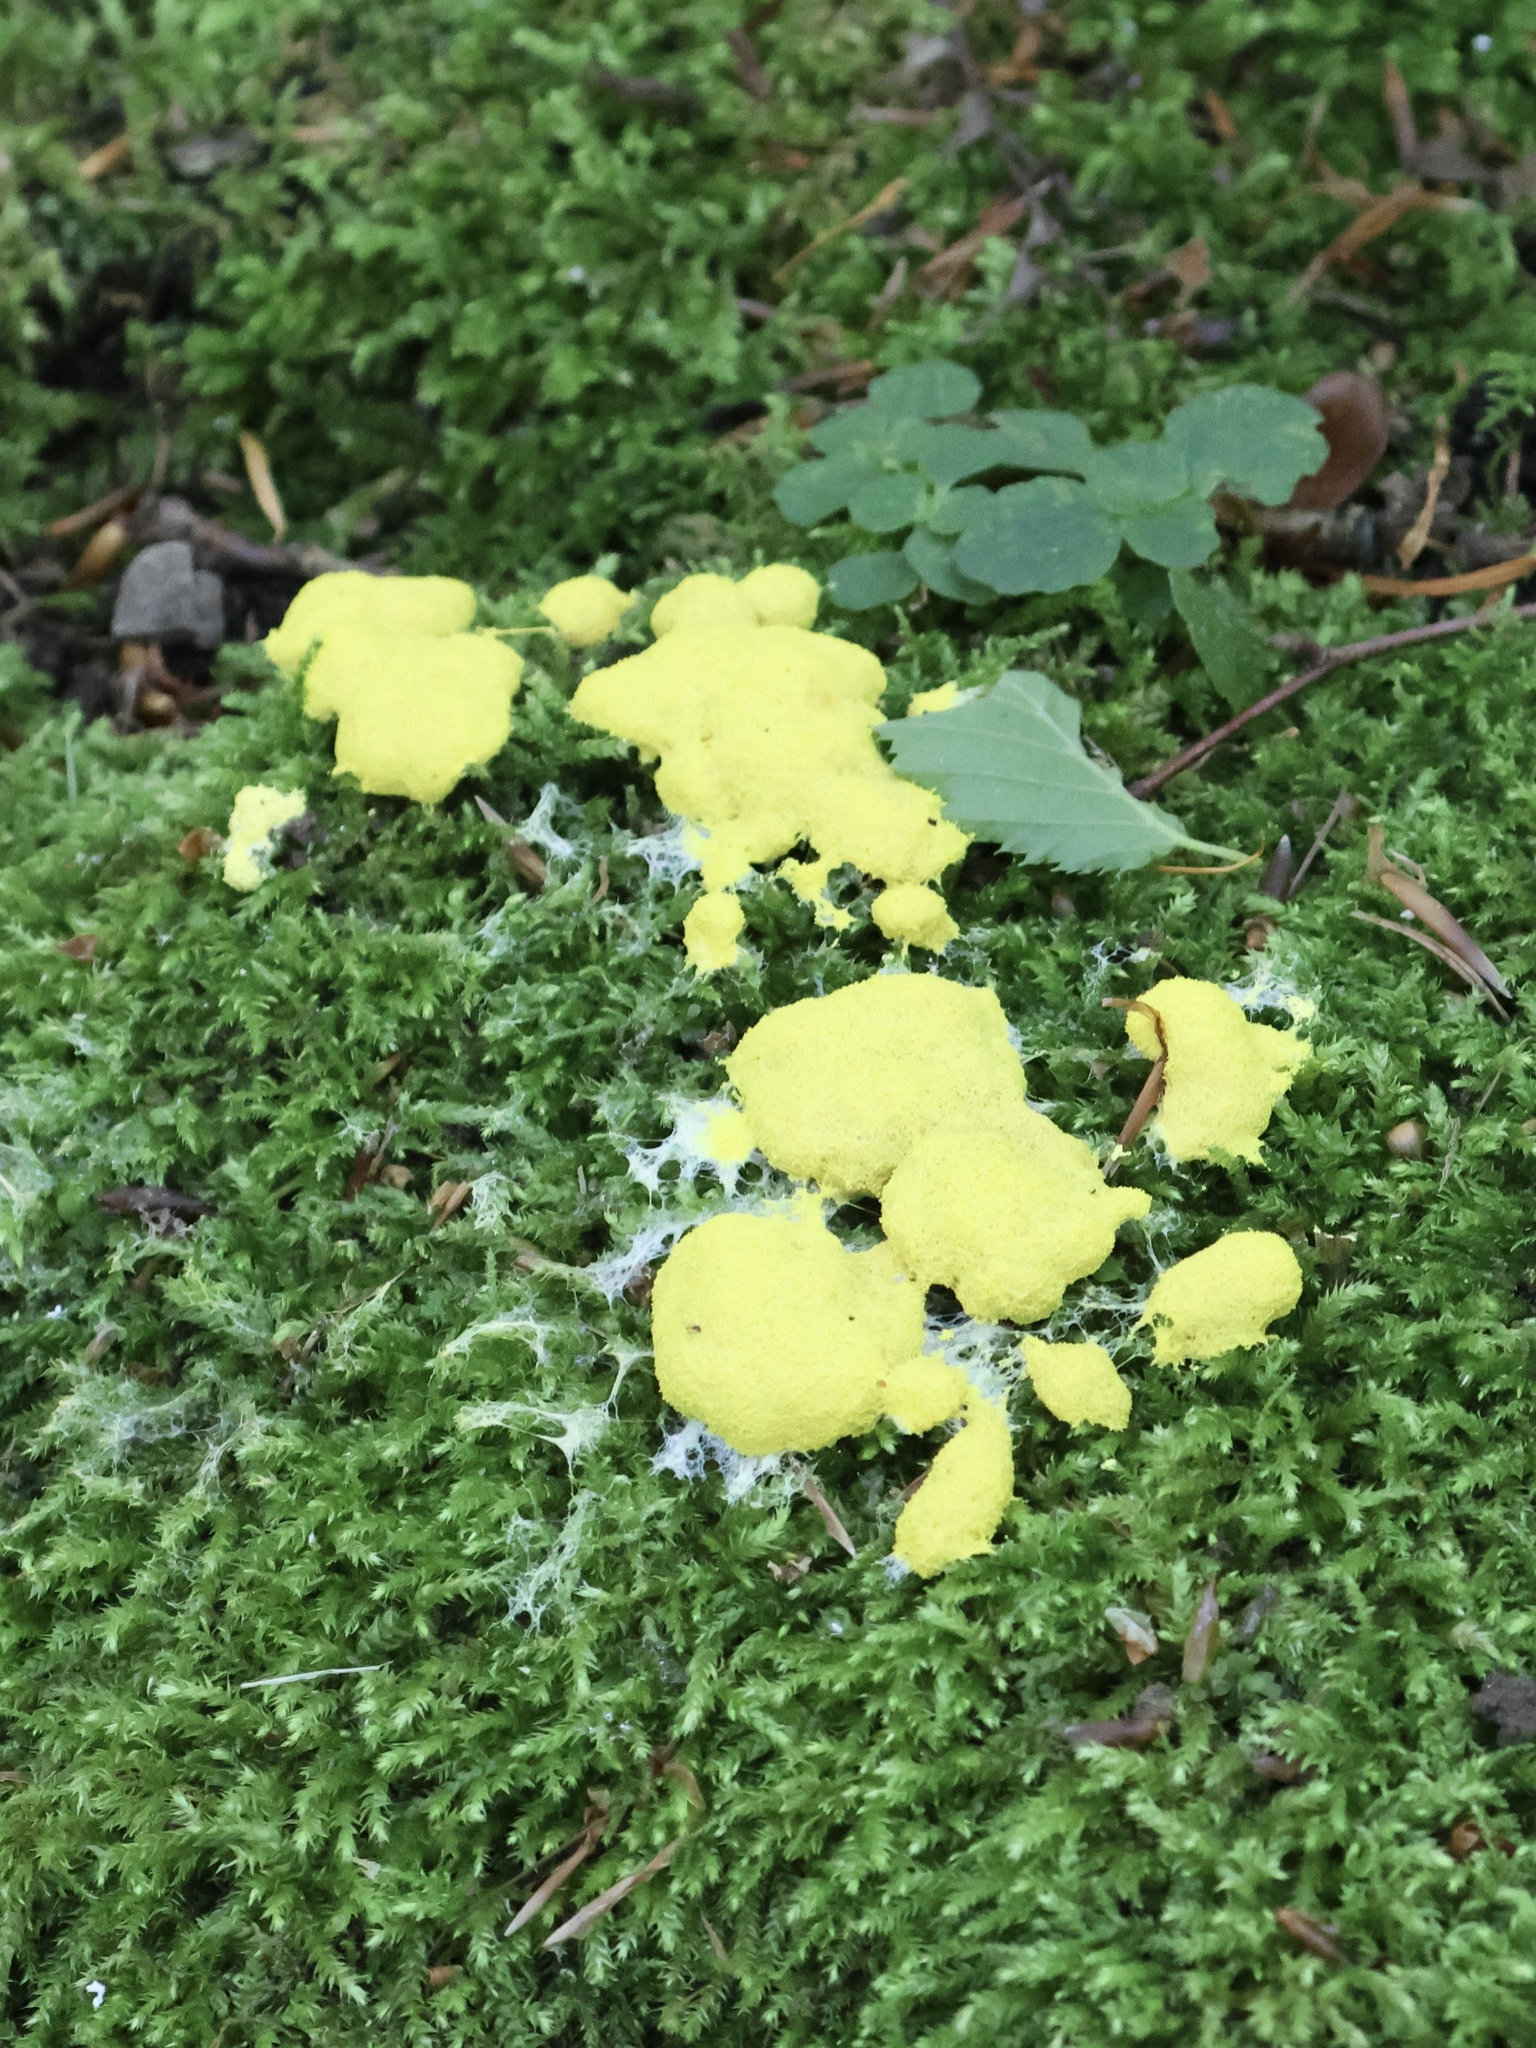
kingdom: Protozoa
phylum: Mycetozoa
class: Myxomycetes
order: Physarales
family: Physaraceae
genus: Fuligo
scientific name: Fuligo septica
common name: Dog vomit slime mold
